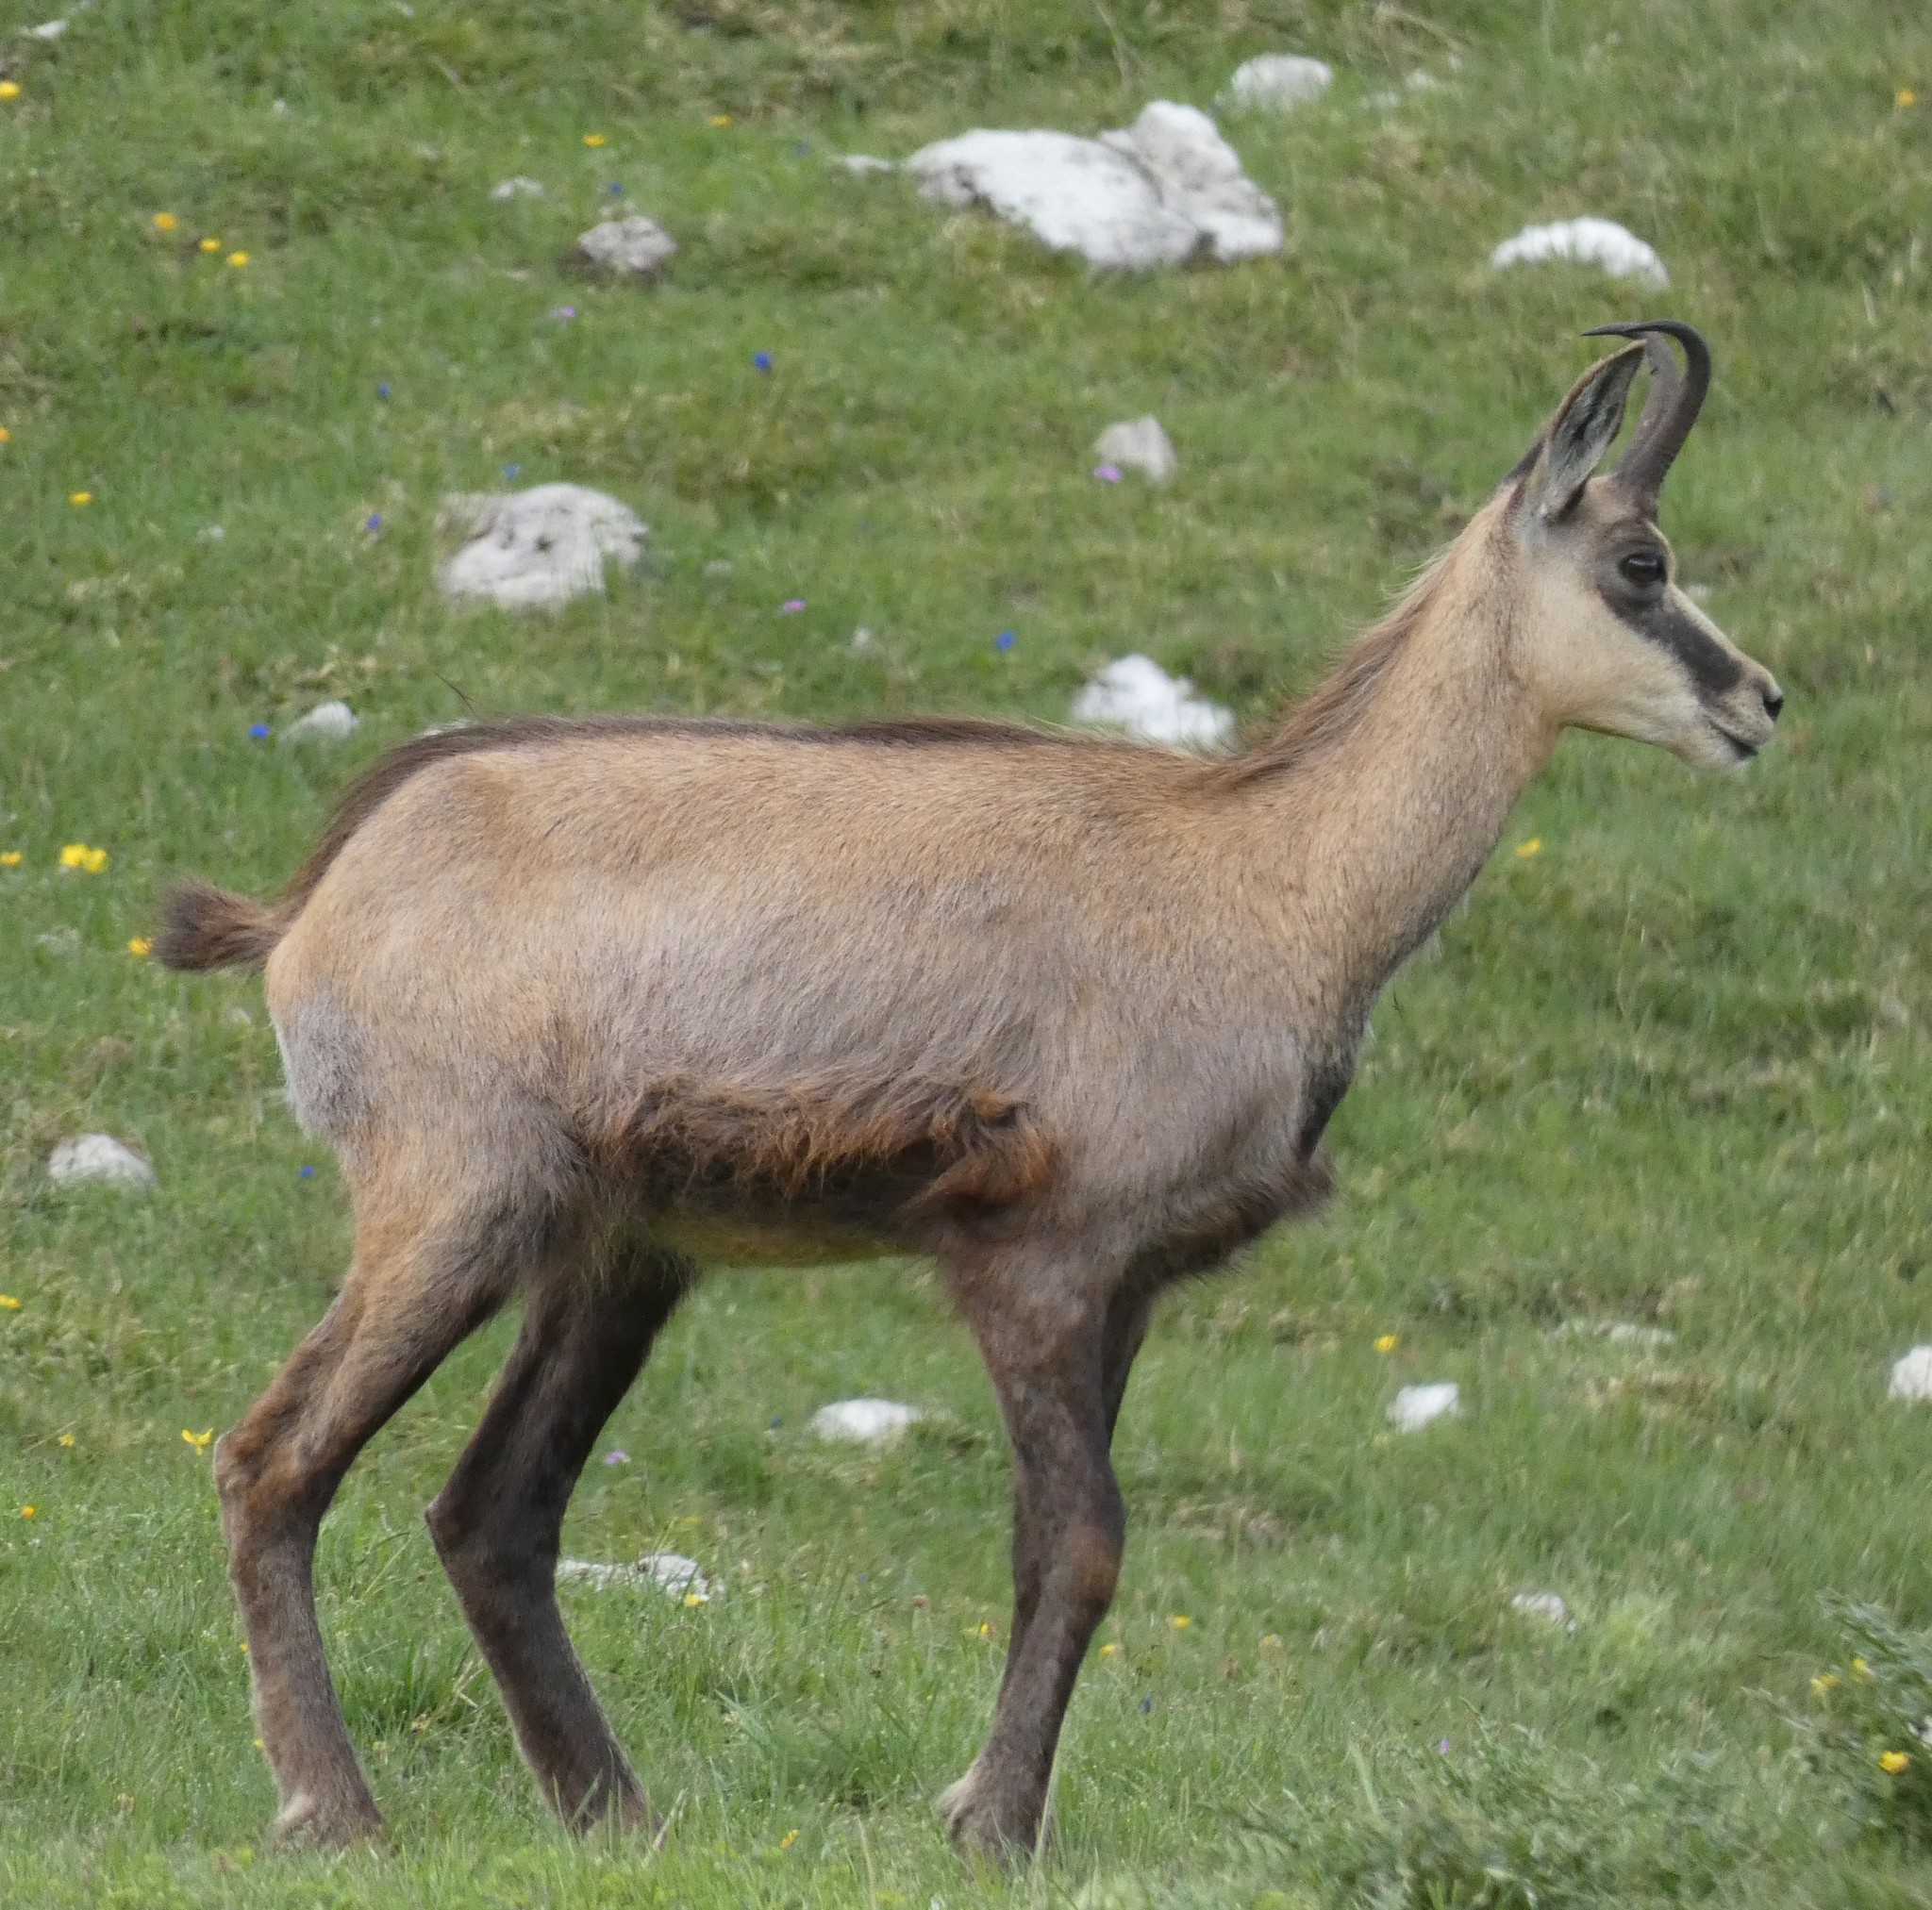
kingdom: Animalia
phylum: Chordata
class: Mammalia
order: Artiodactyla
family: Bovidae
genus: Rupicapra
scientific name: Rupicapra rupicapra
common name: Chamois
